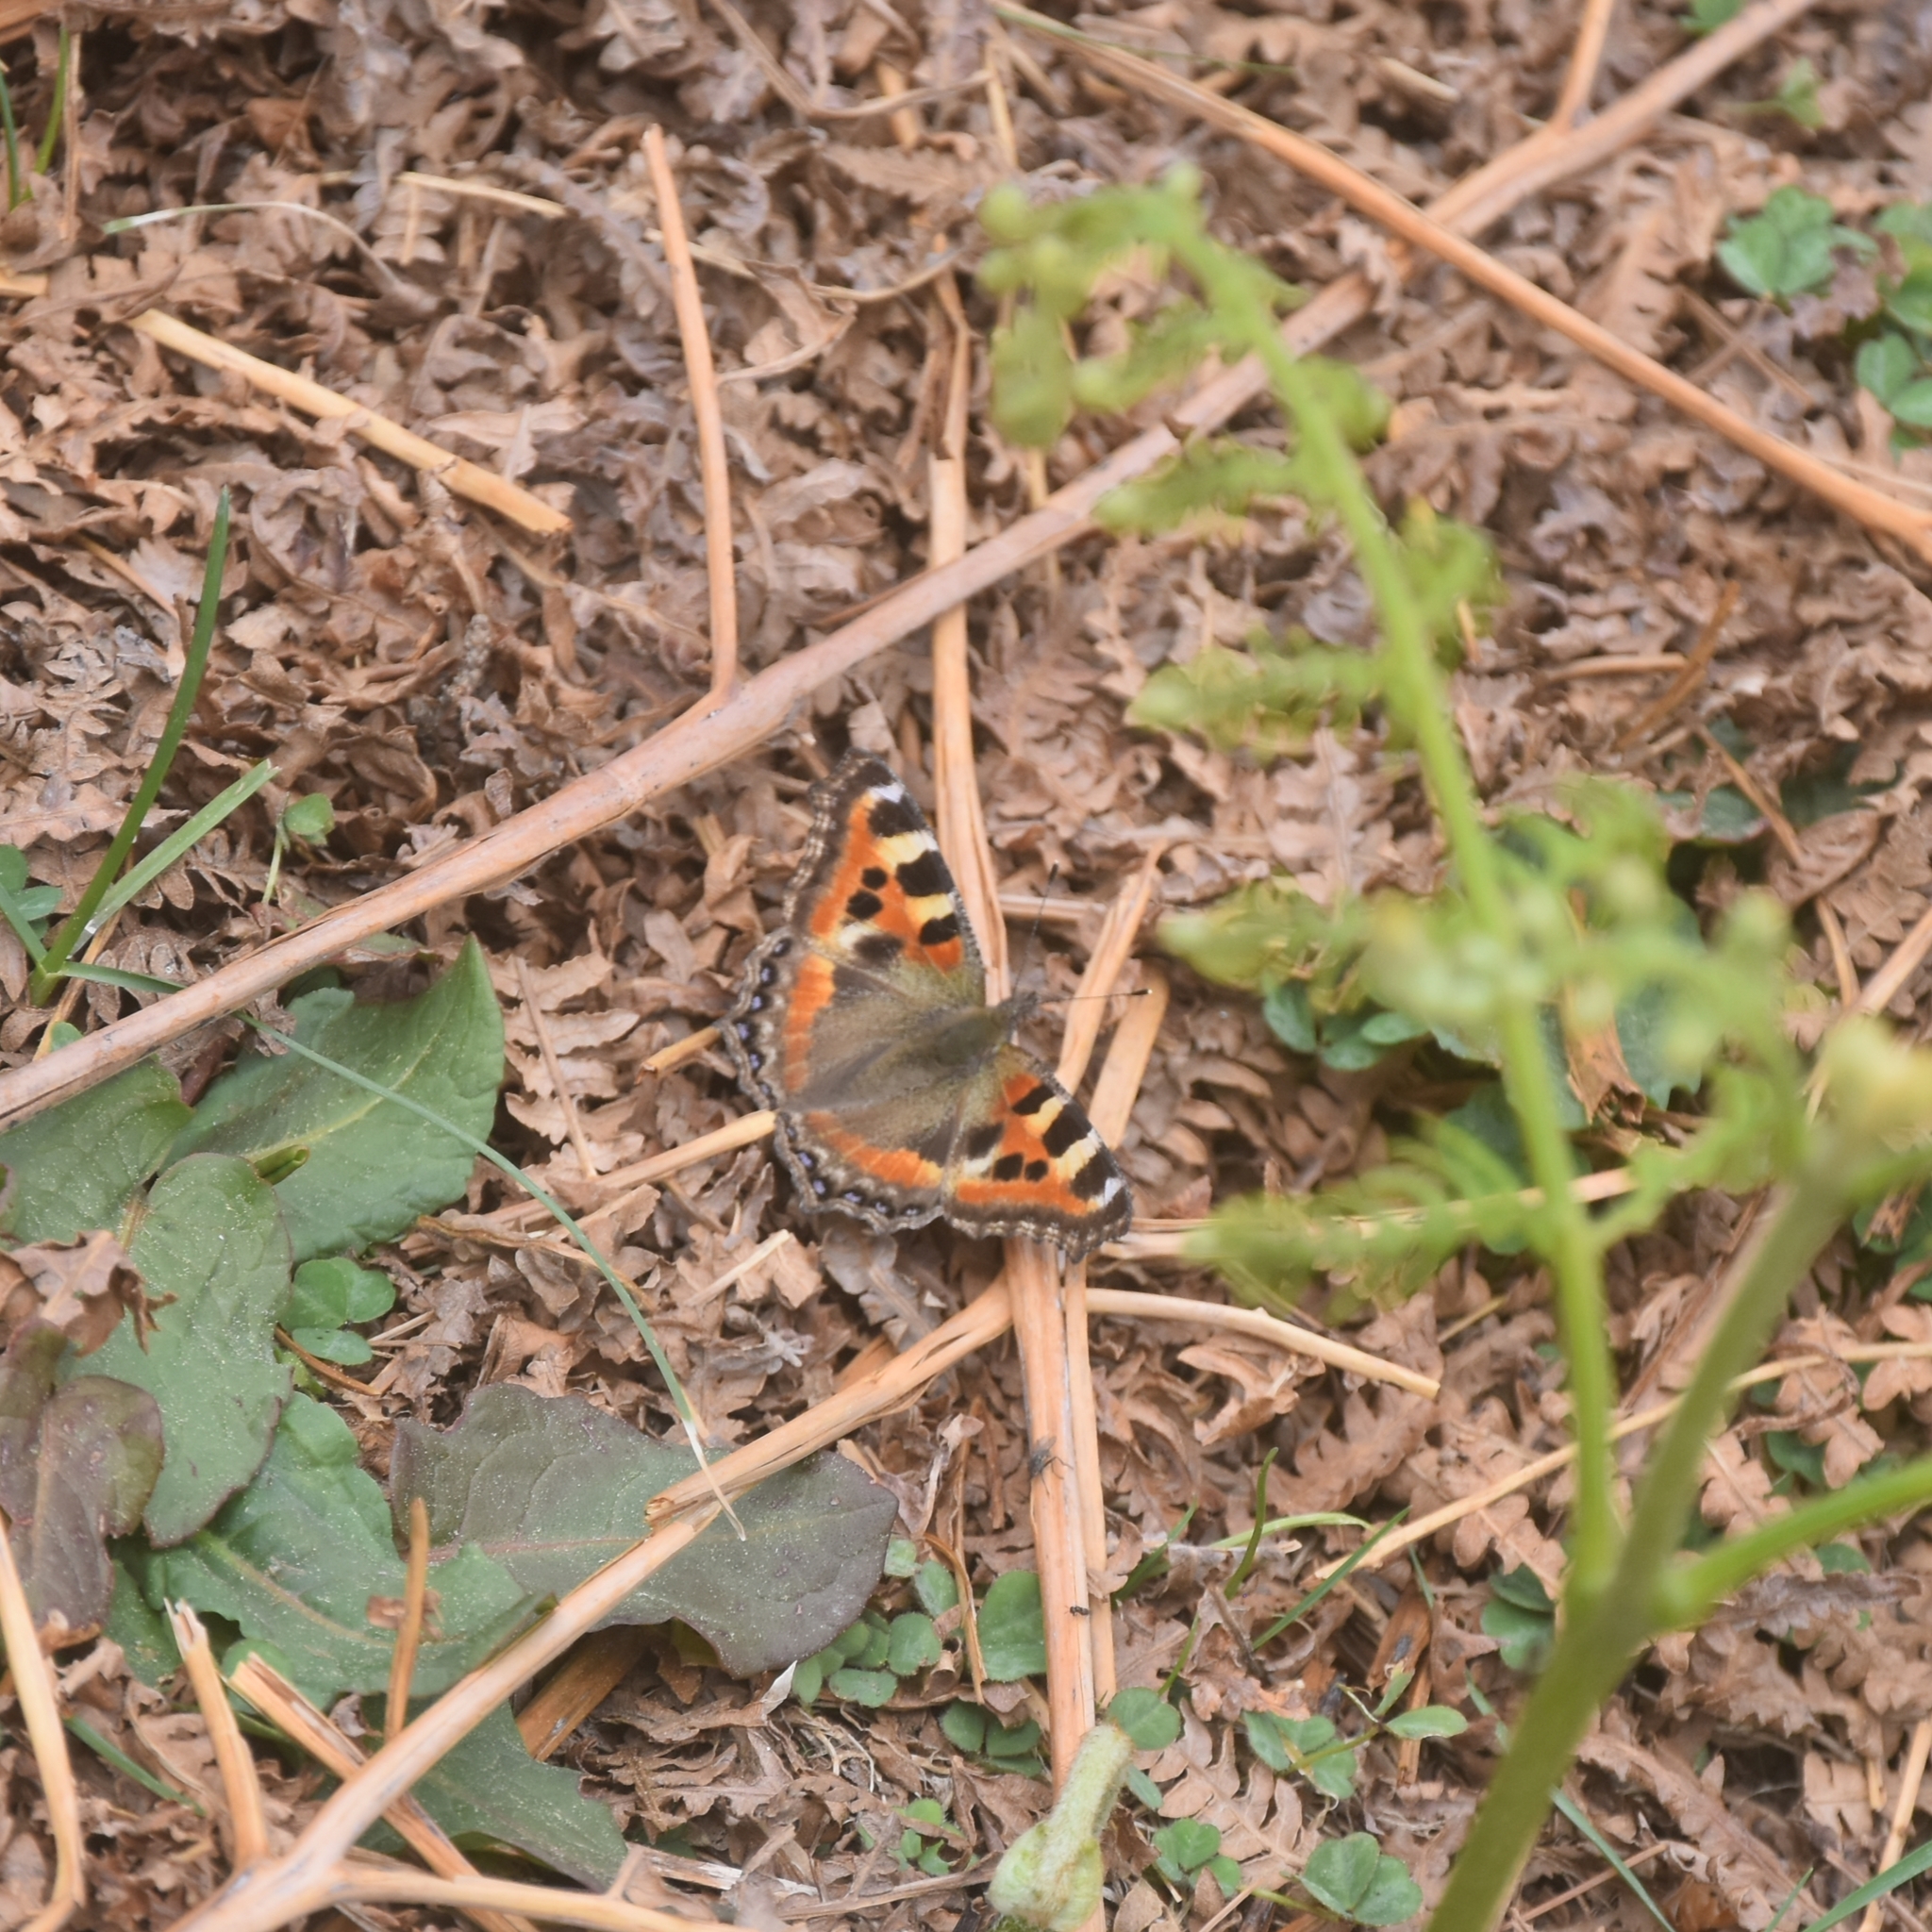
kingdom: Animalia
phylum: Arthropoda
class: Insecta
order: Lepidoptera
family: Nymphalidae
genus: Aglais
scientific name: Aglais caschmirensis
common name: Indian tortoiseshell
